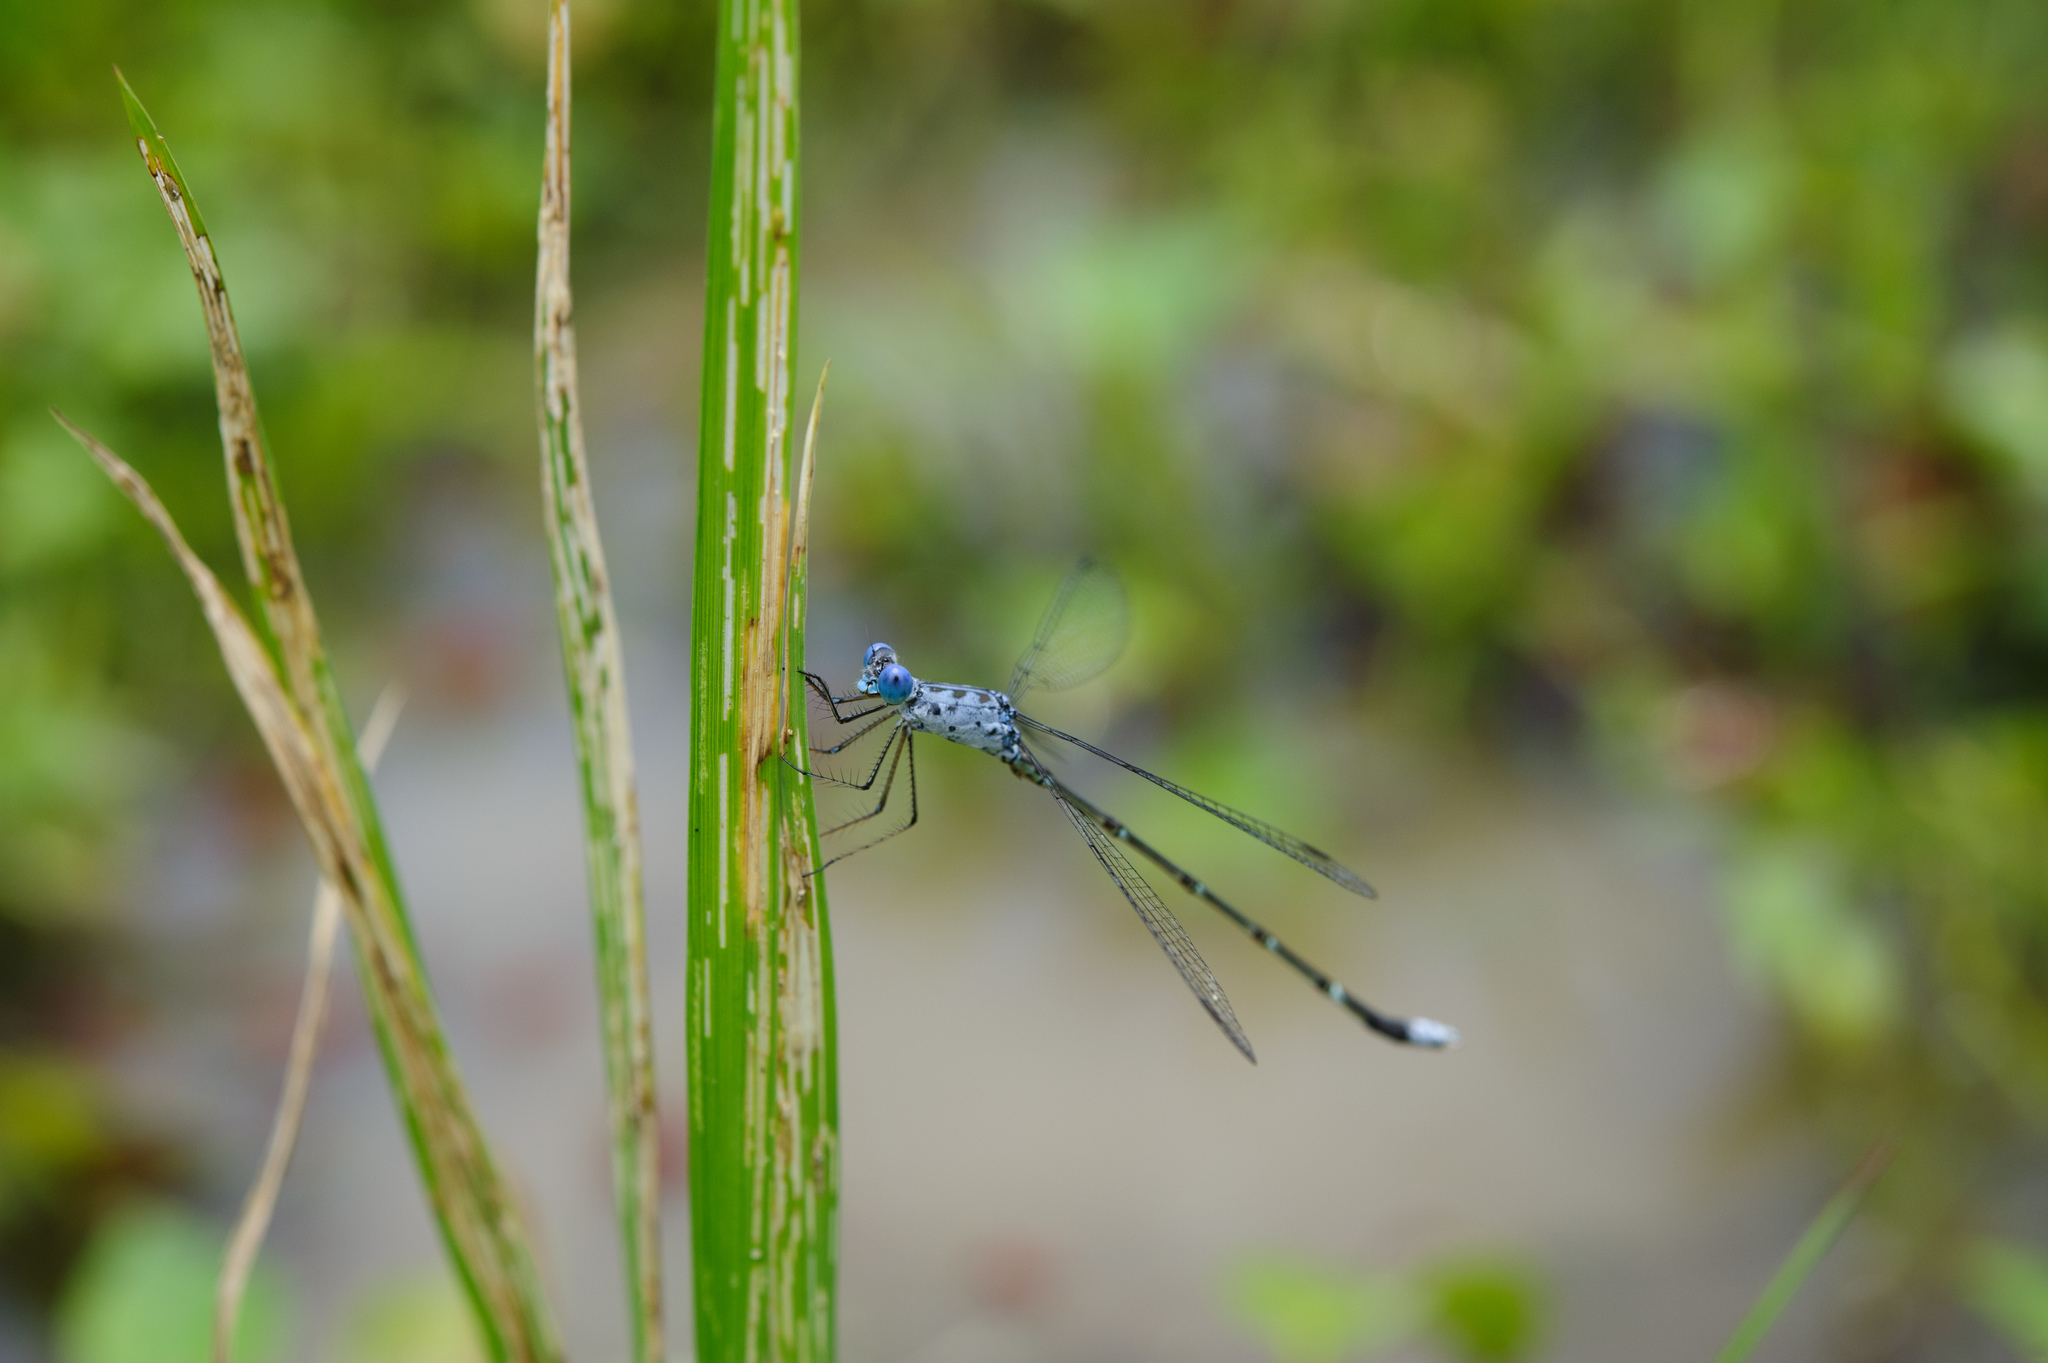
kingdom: Animalia
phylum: Arthropoda
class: Insecta
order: Odonata
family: Lestidae
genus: Lestes
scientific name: Lestes praemorsus
